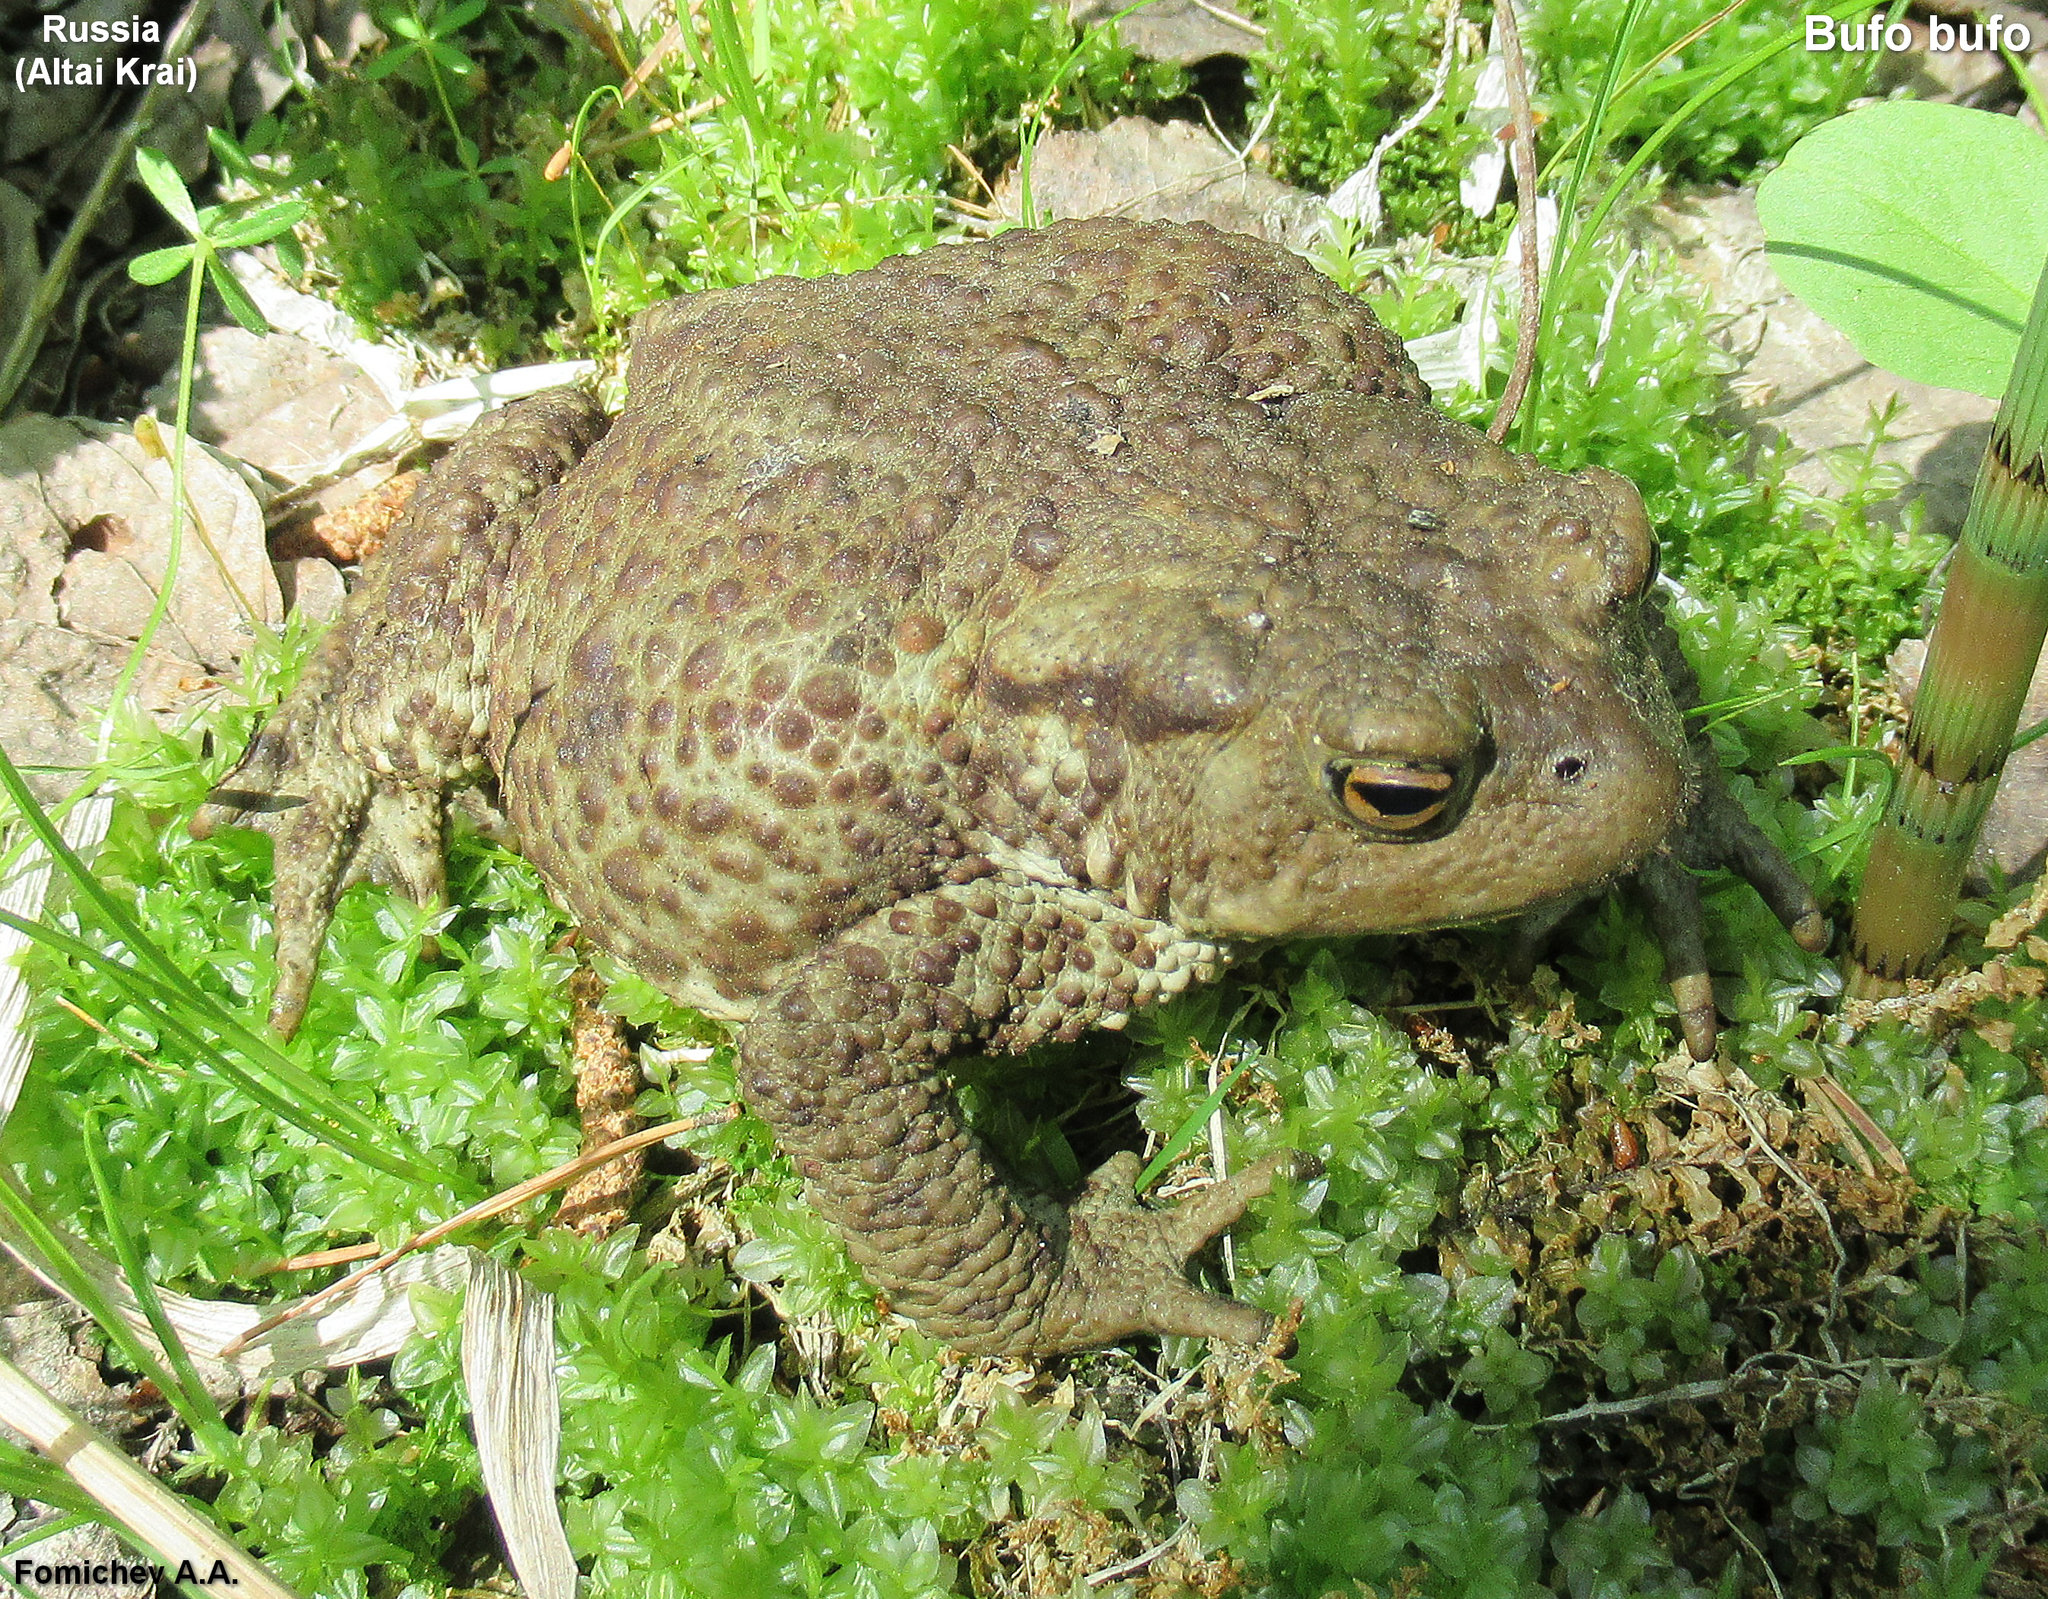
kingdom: Animalia
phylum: Chordata
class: Amphibia
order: Anura
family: Bufonidae
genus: Bufo
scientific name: Bufo bufo
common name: Common toad
